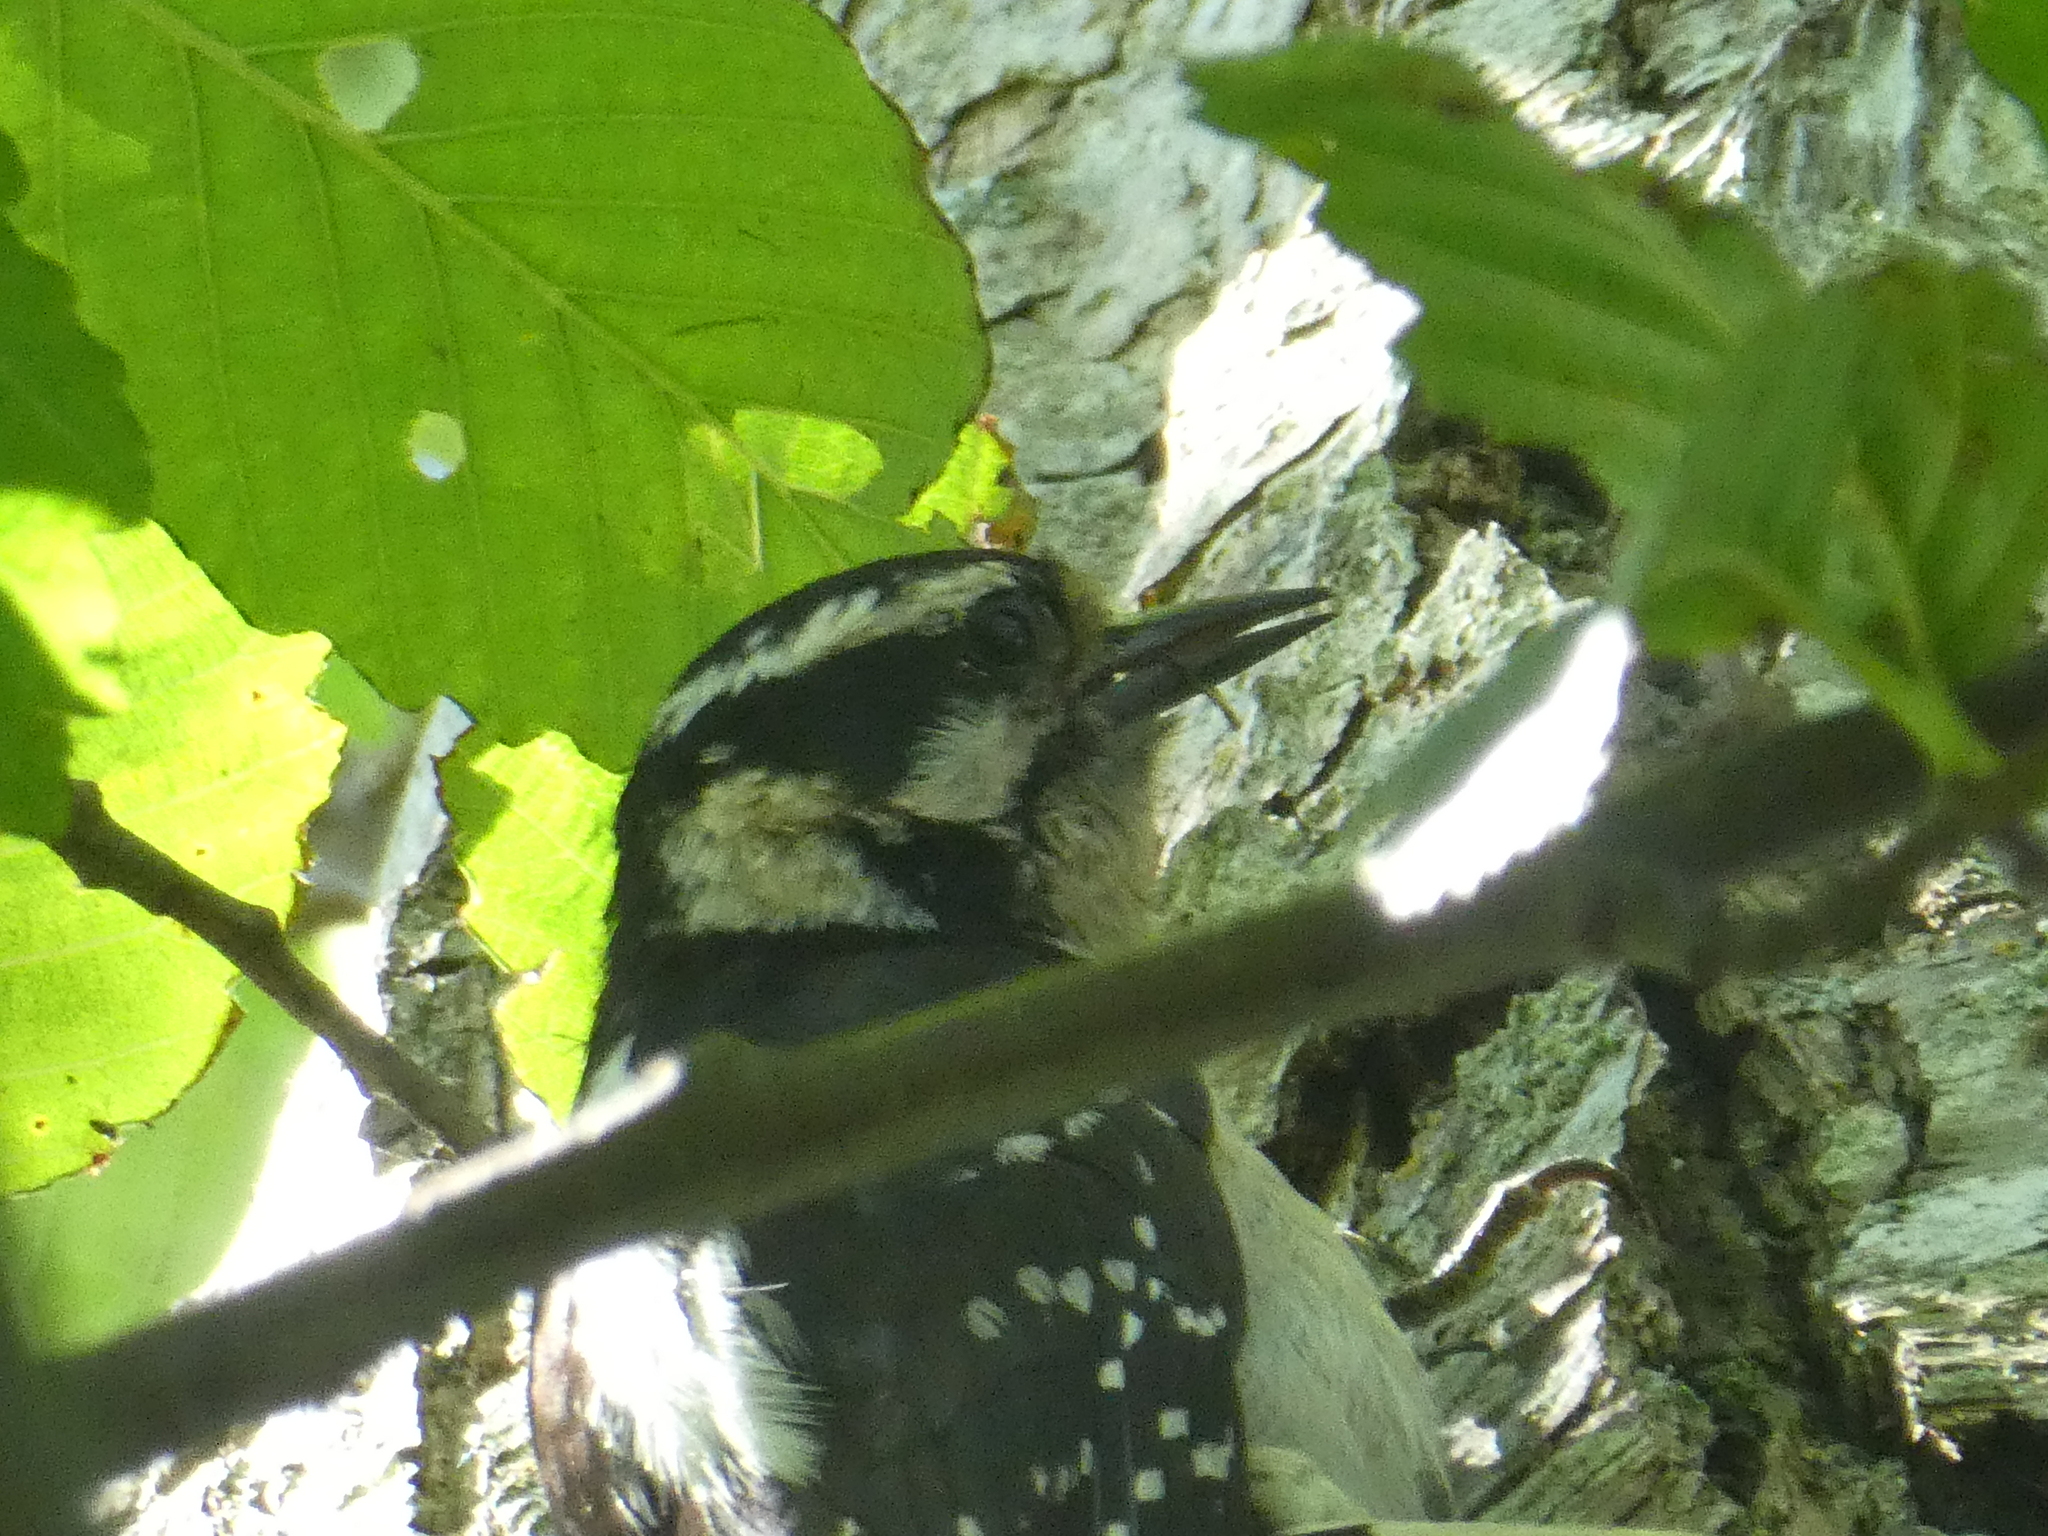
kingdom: Animalia
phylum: Chordata
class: Aves
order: Piciformes
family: Picidae
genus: Dryobates
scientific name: Dryobates pubescens
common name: Downy woodpecker
